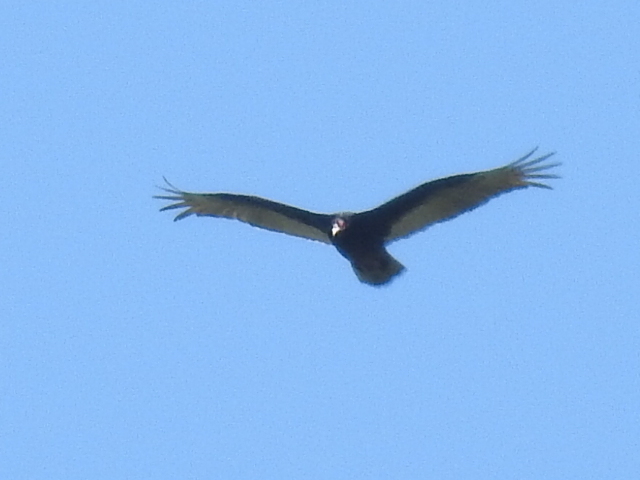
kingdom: Animalia
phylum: Chordata
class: Aves
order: Accipitriformes
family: Cathartidae
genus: Cathartes
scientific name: Cathartes aura
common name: Turkey vulture
